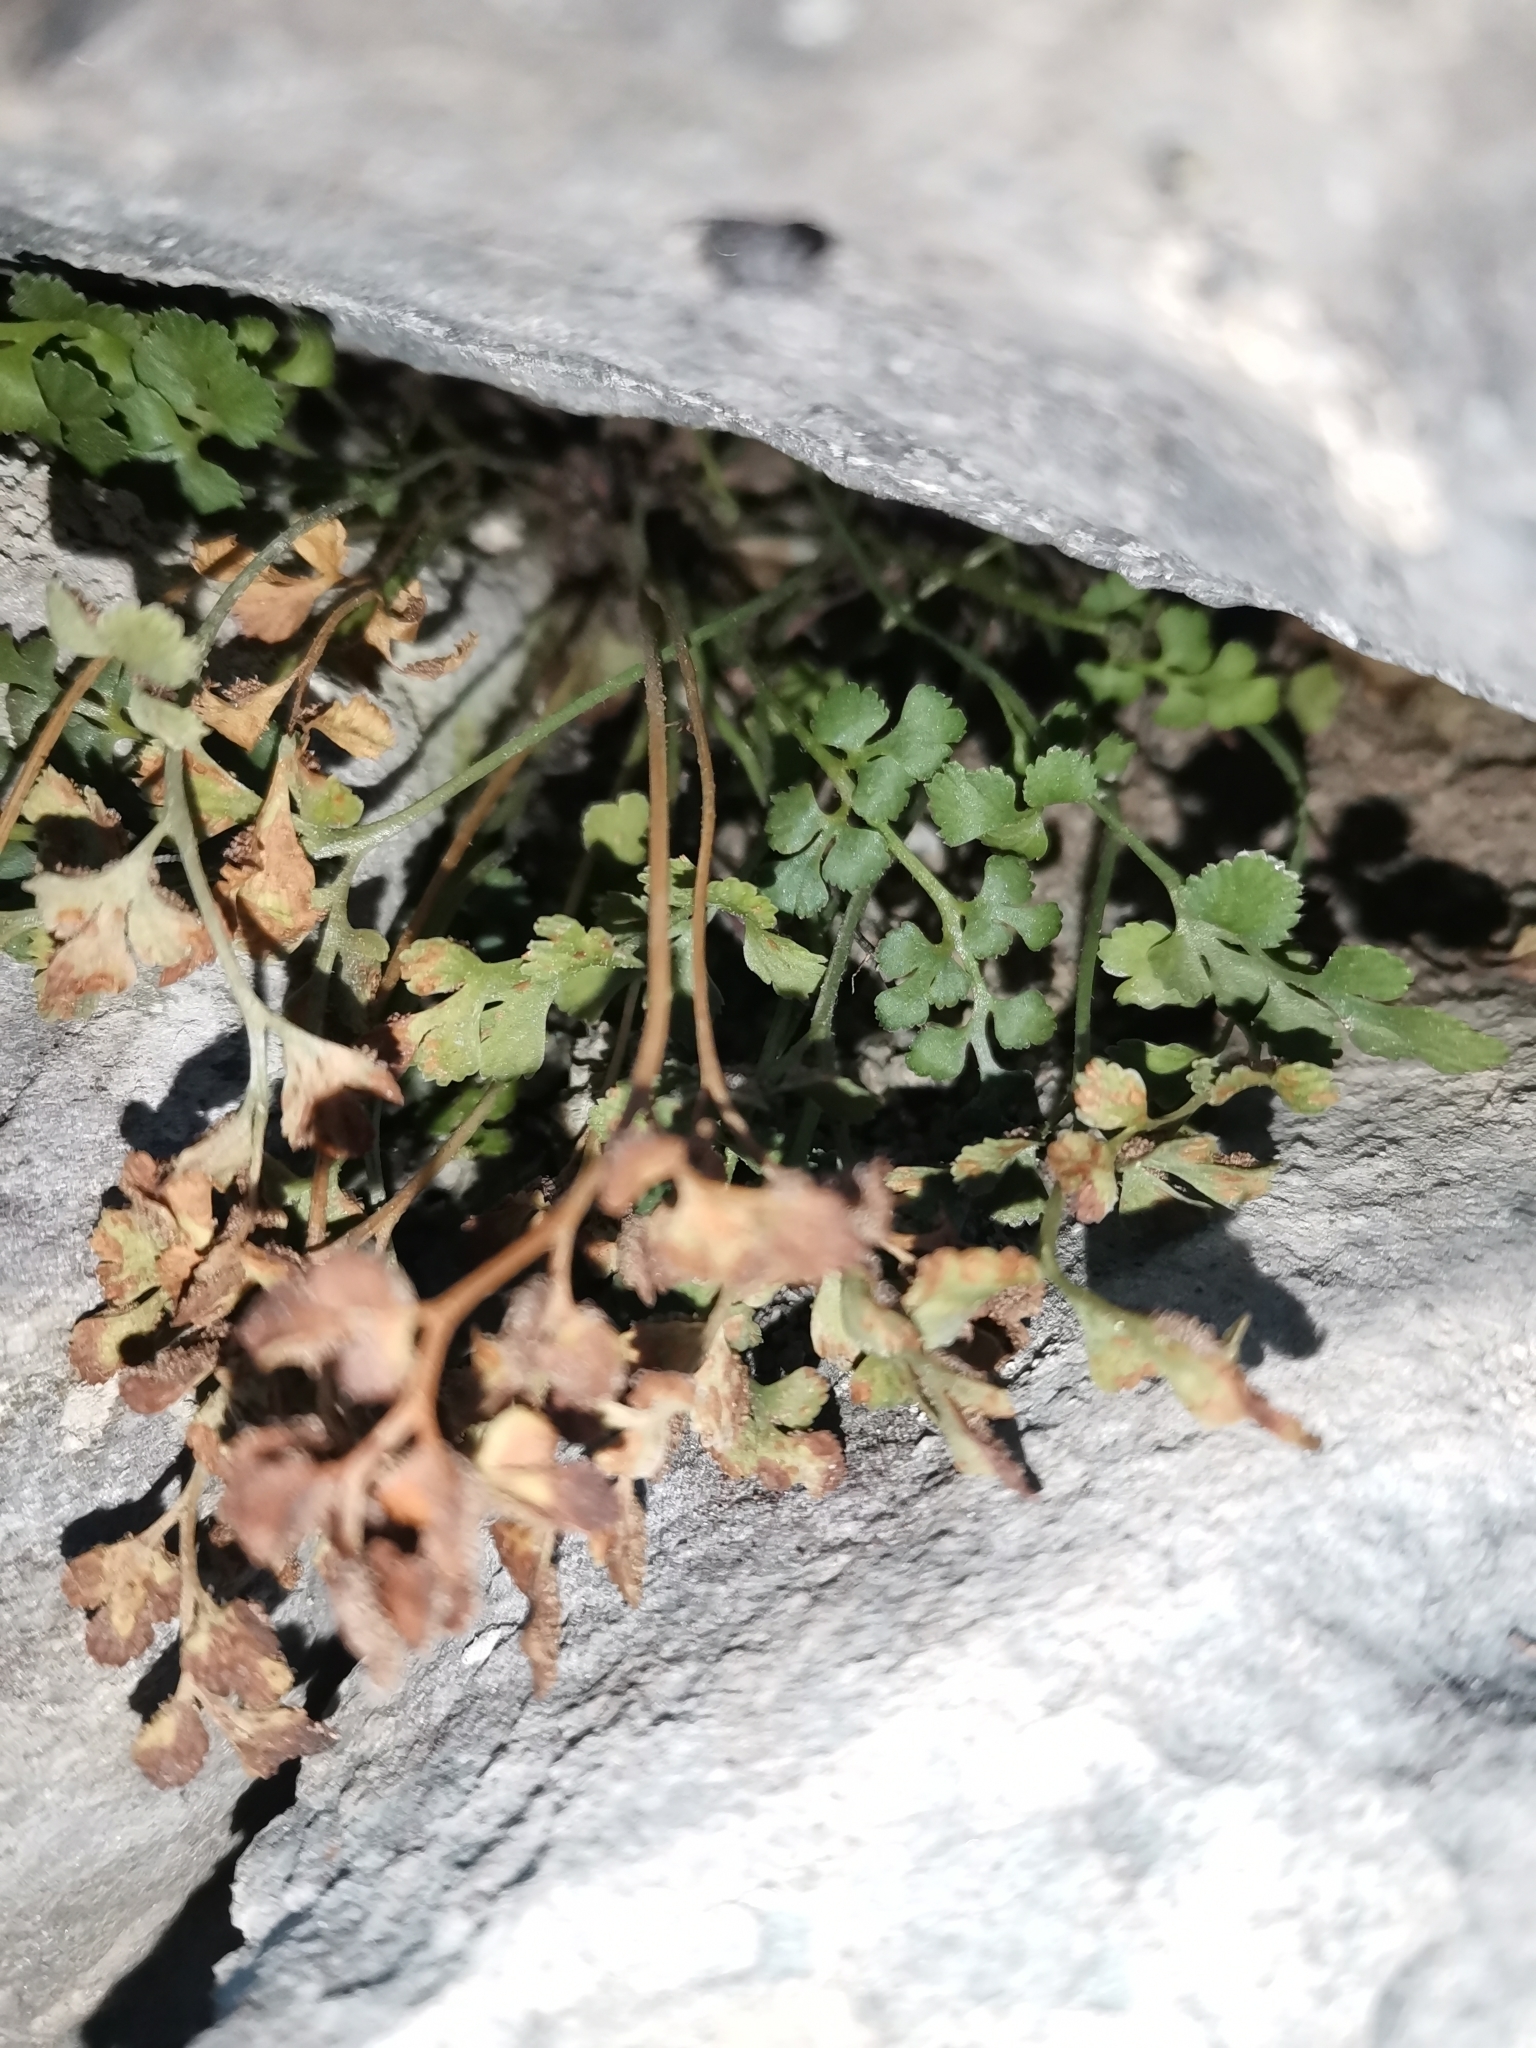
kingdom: Plantae
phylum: Tracheophyta
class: Polypodiopsida
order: Polypodiales
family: Aspleniaceae
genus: Asplenium
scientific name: Asplenium ruta-muraria
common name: Wall-rue
